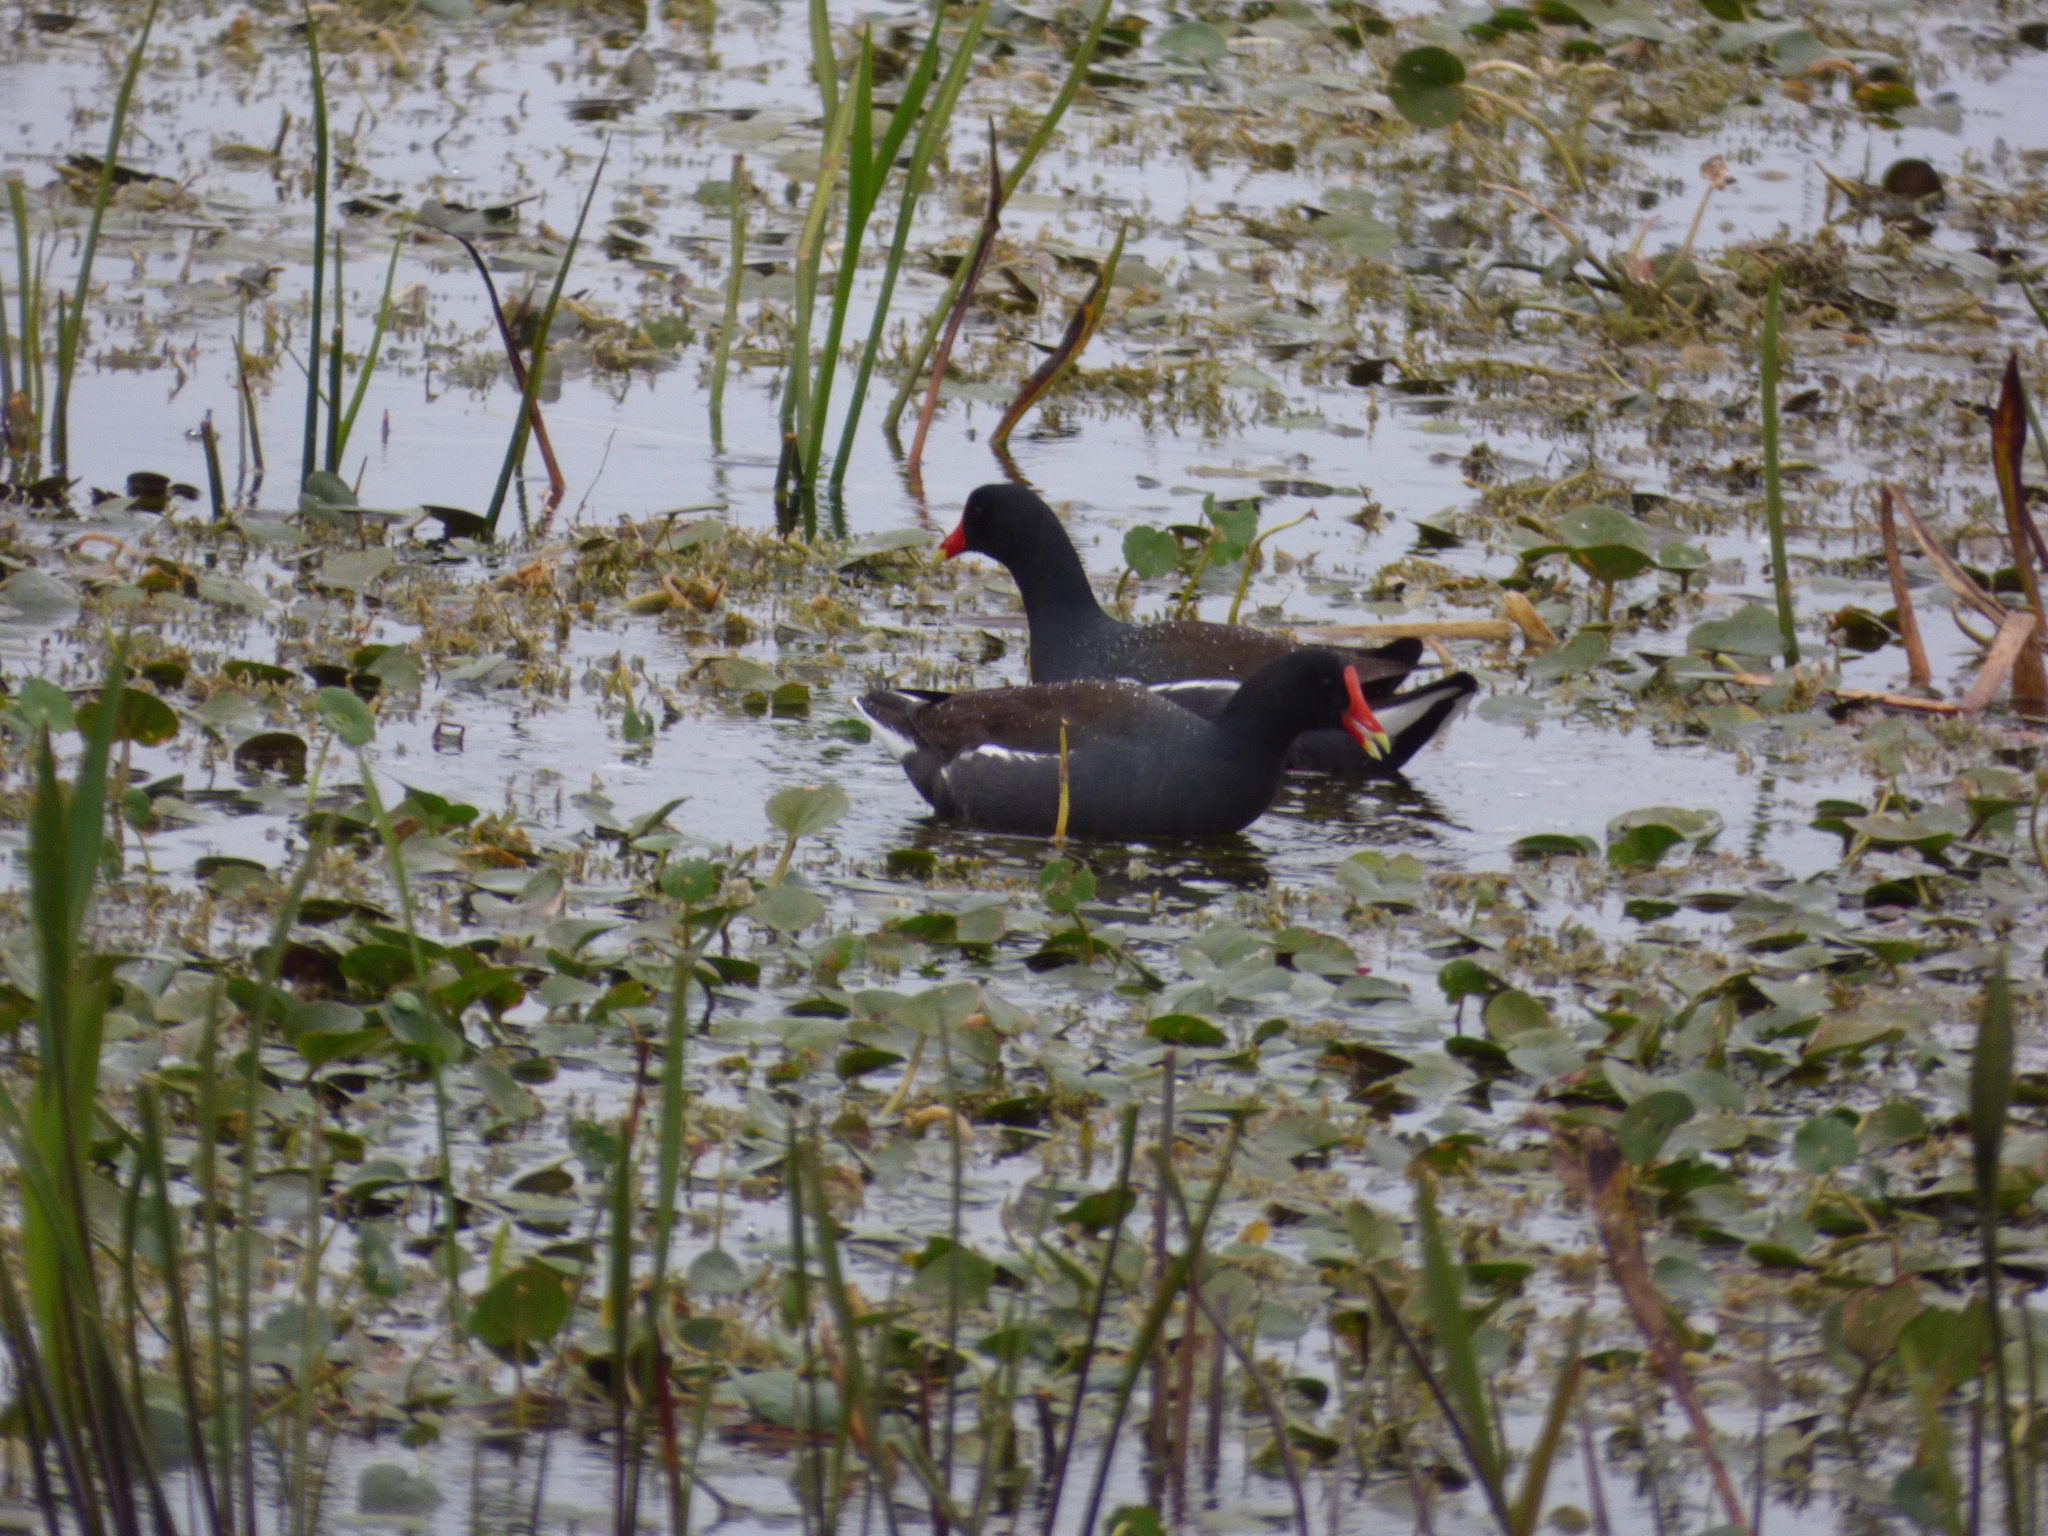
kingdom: Animalia
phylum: Chordata
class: Aves
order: Gruiformes
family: Rallidae
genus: Gallinula
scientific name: Gallinula chloropus
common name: Common moorhen
